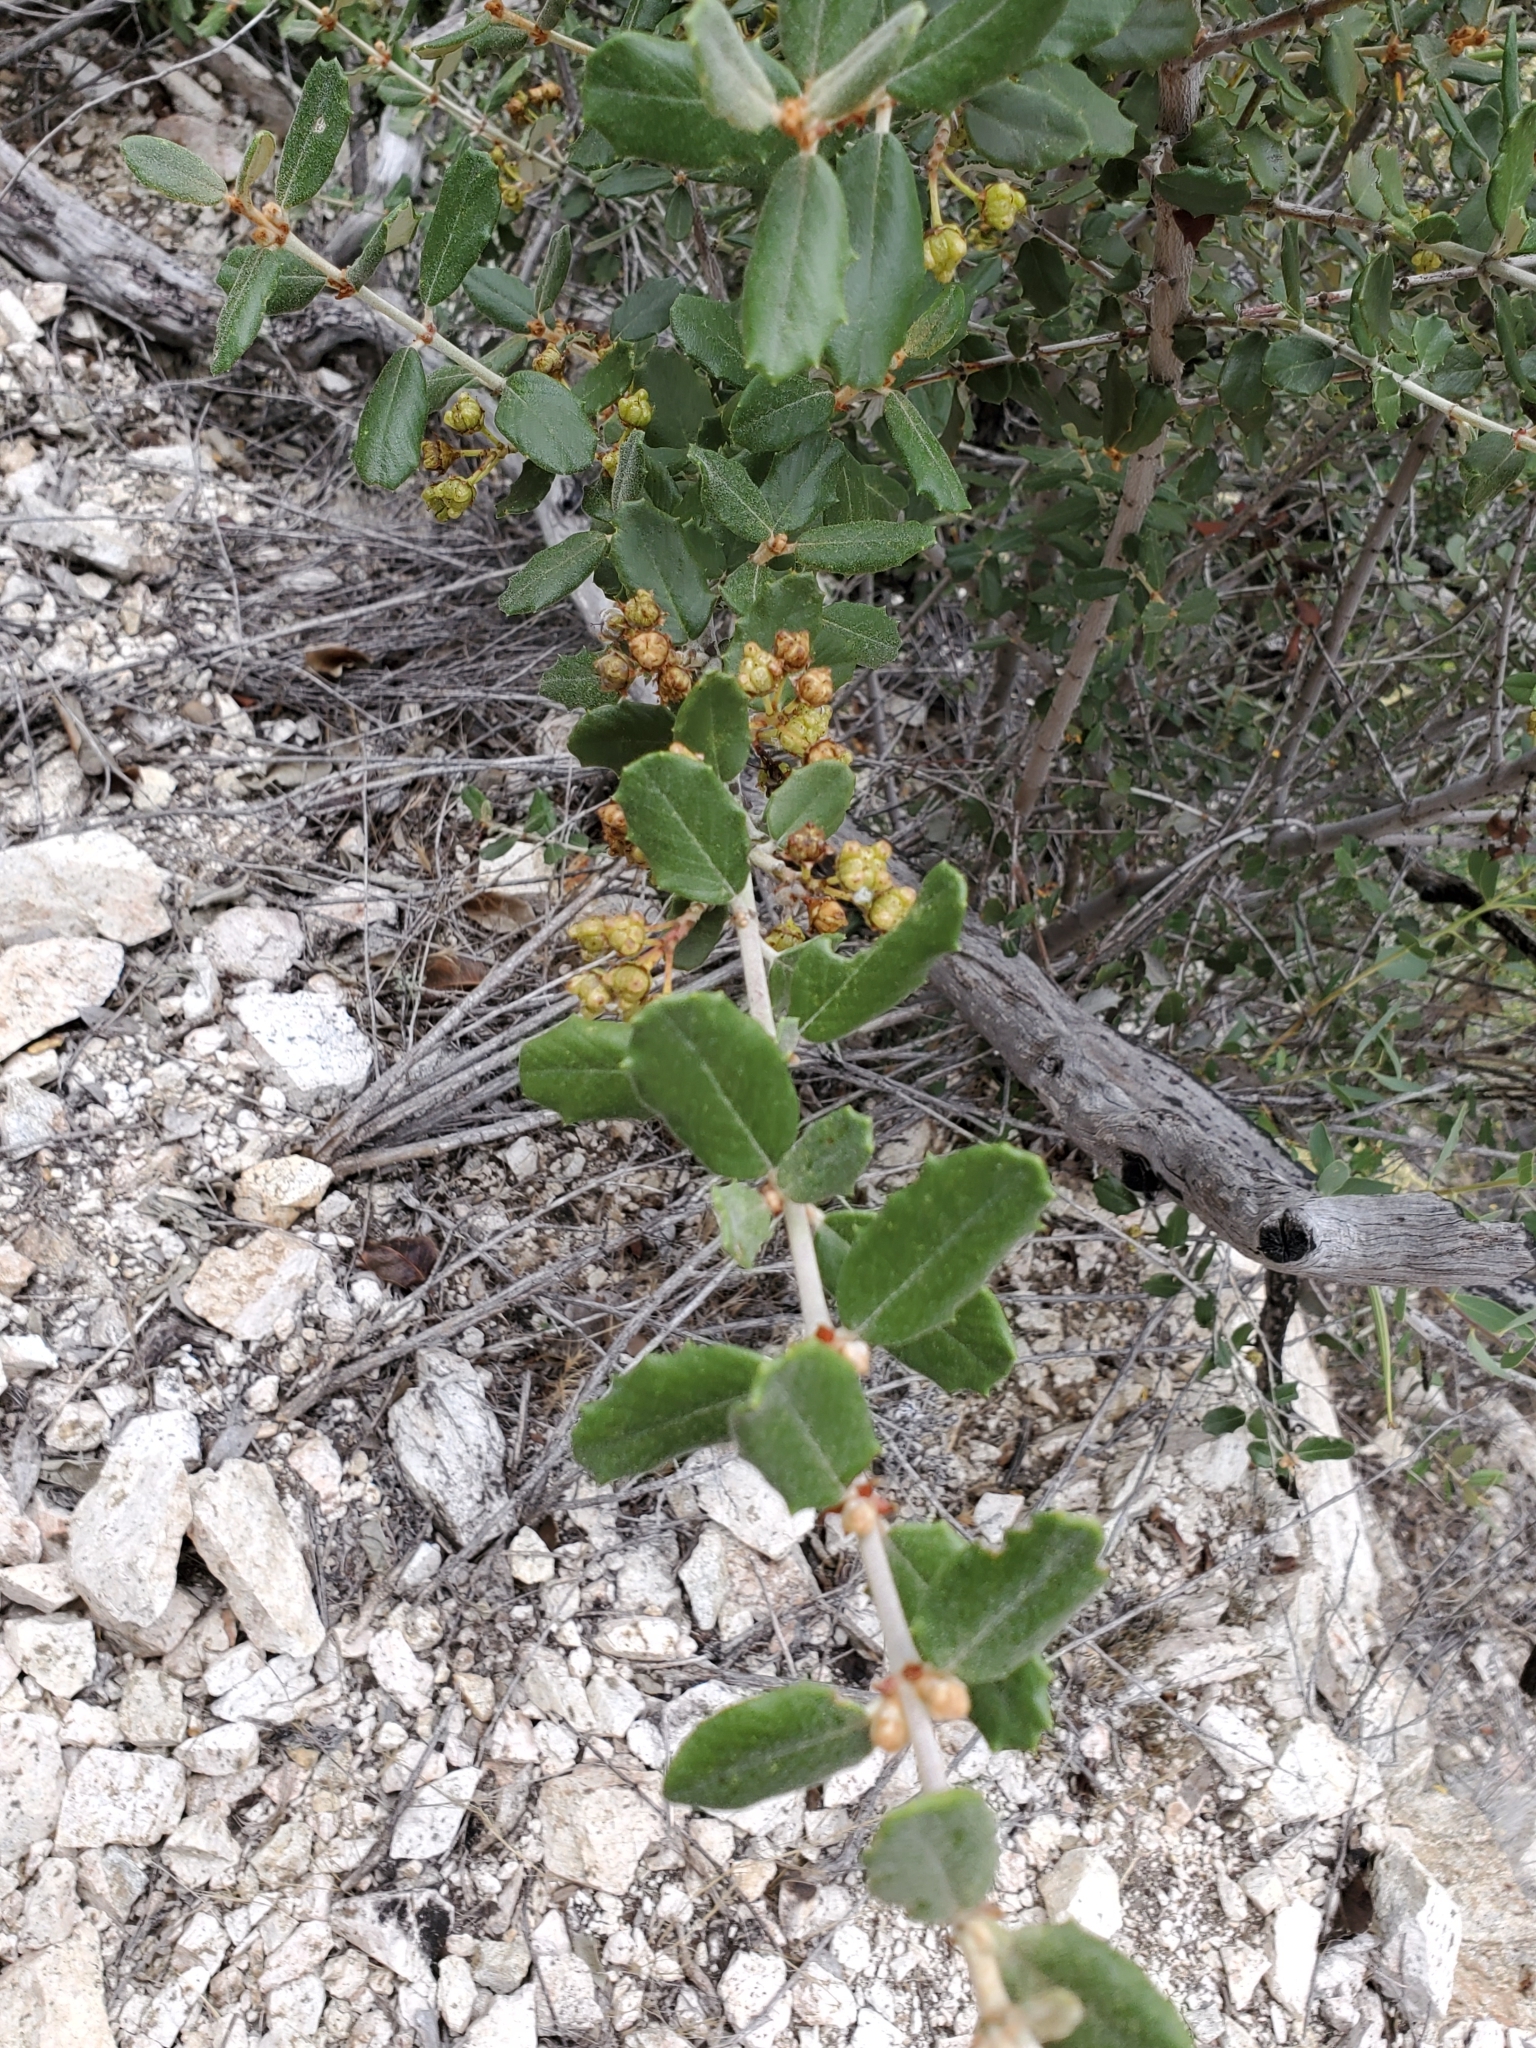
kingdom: Plantae
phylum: Tracheophyta
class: Magnoliopsida
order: Rosales
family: Rhamnaceae
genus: Ceanothus
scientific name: Ceanothus crassifolius
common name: Hoaryleaf ceanothus
